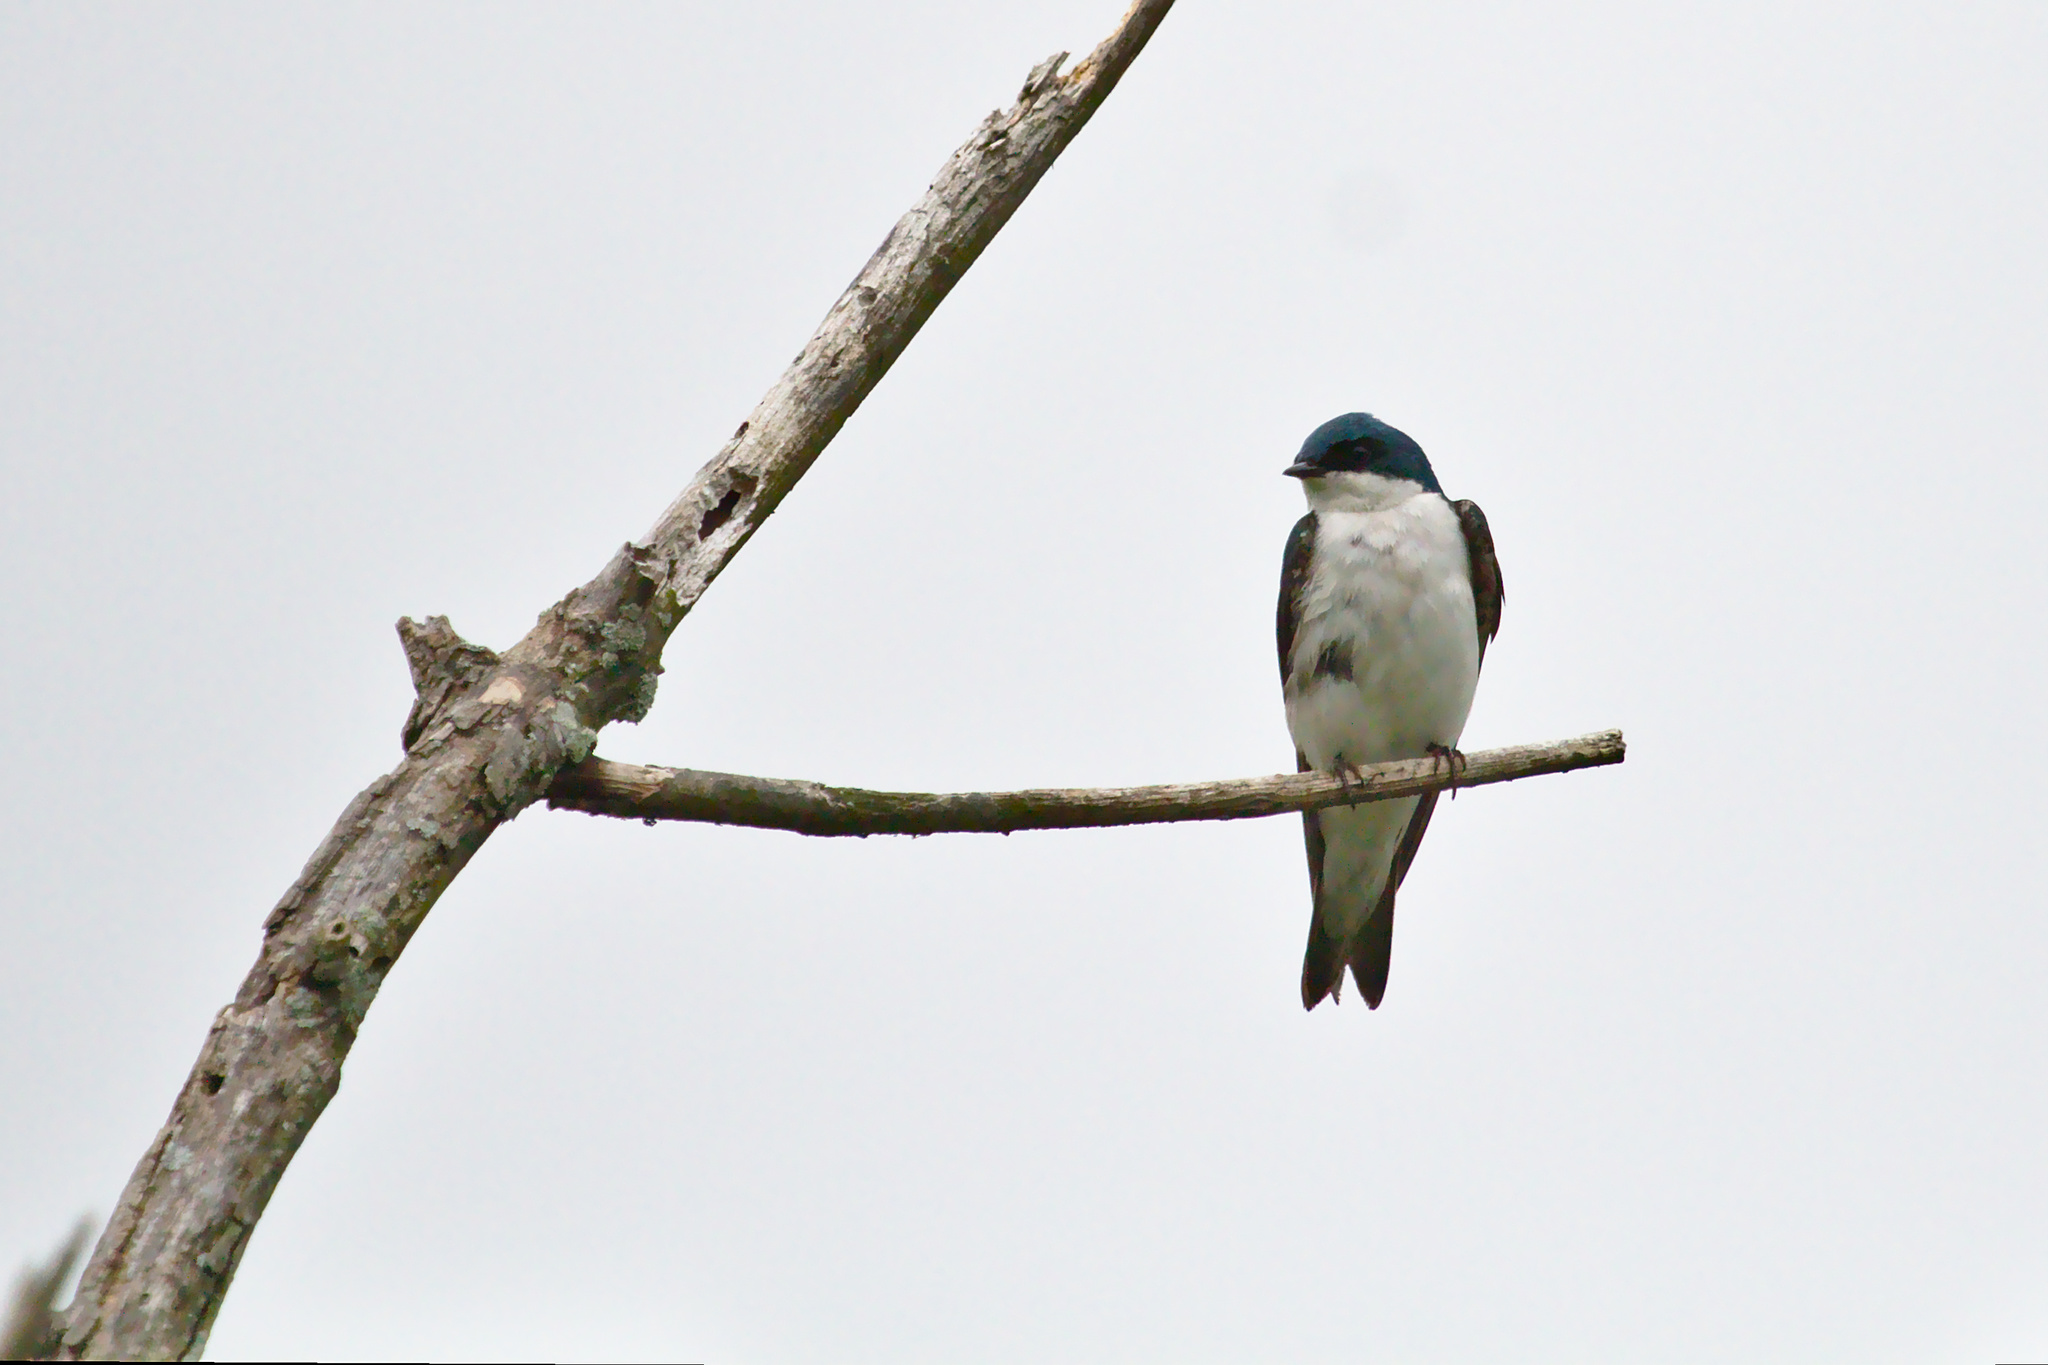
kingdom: Animalia
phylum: Chordata
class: Aves
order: Passeriformes
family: Hirundinidae
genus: Tachycineta
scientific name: Tachycineta bicolor
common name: Tree swallow
